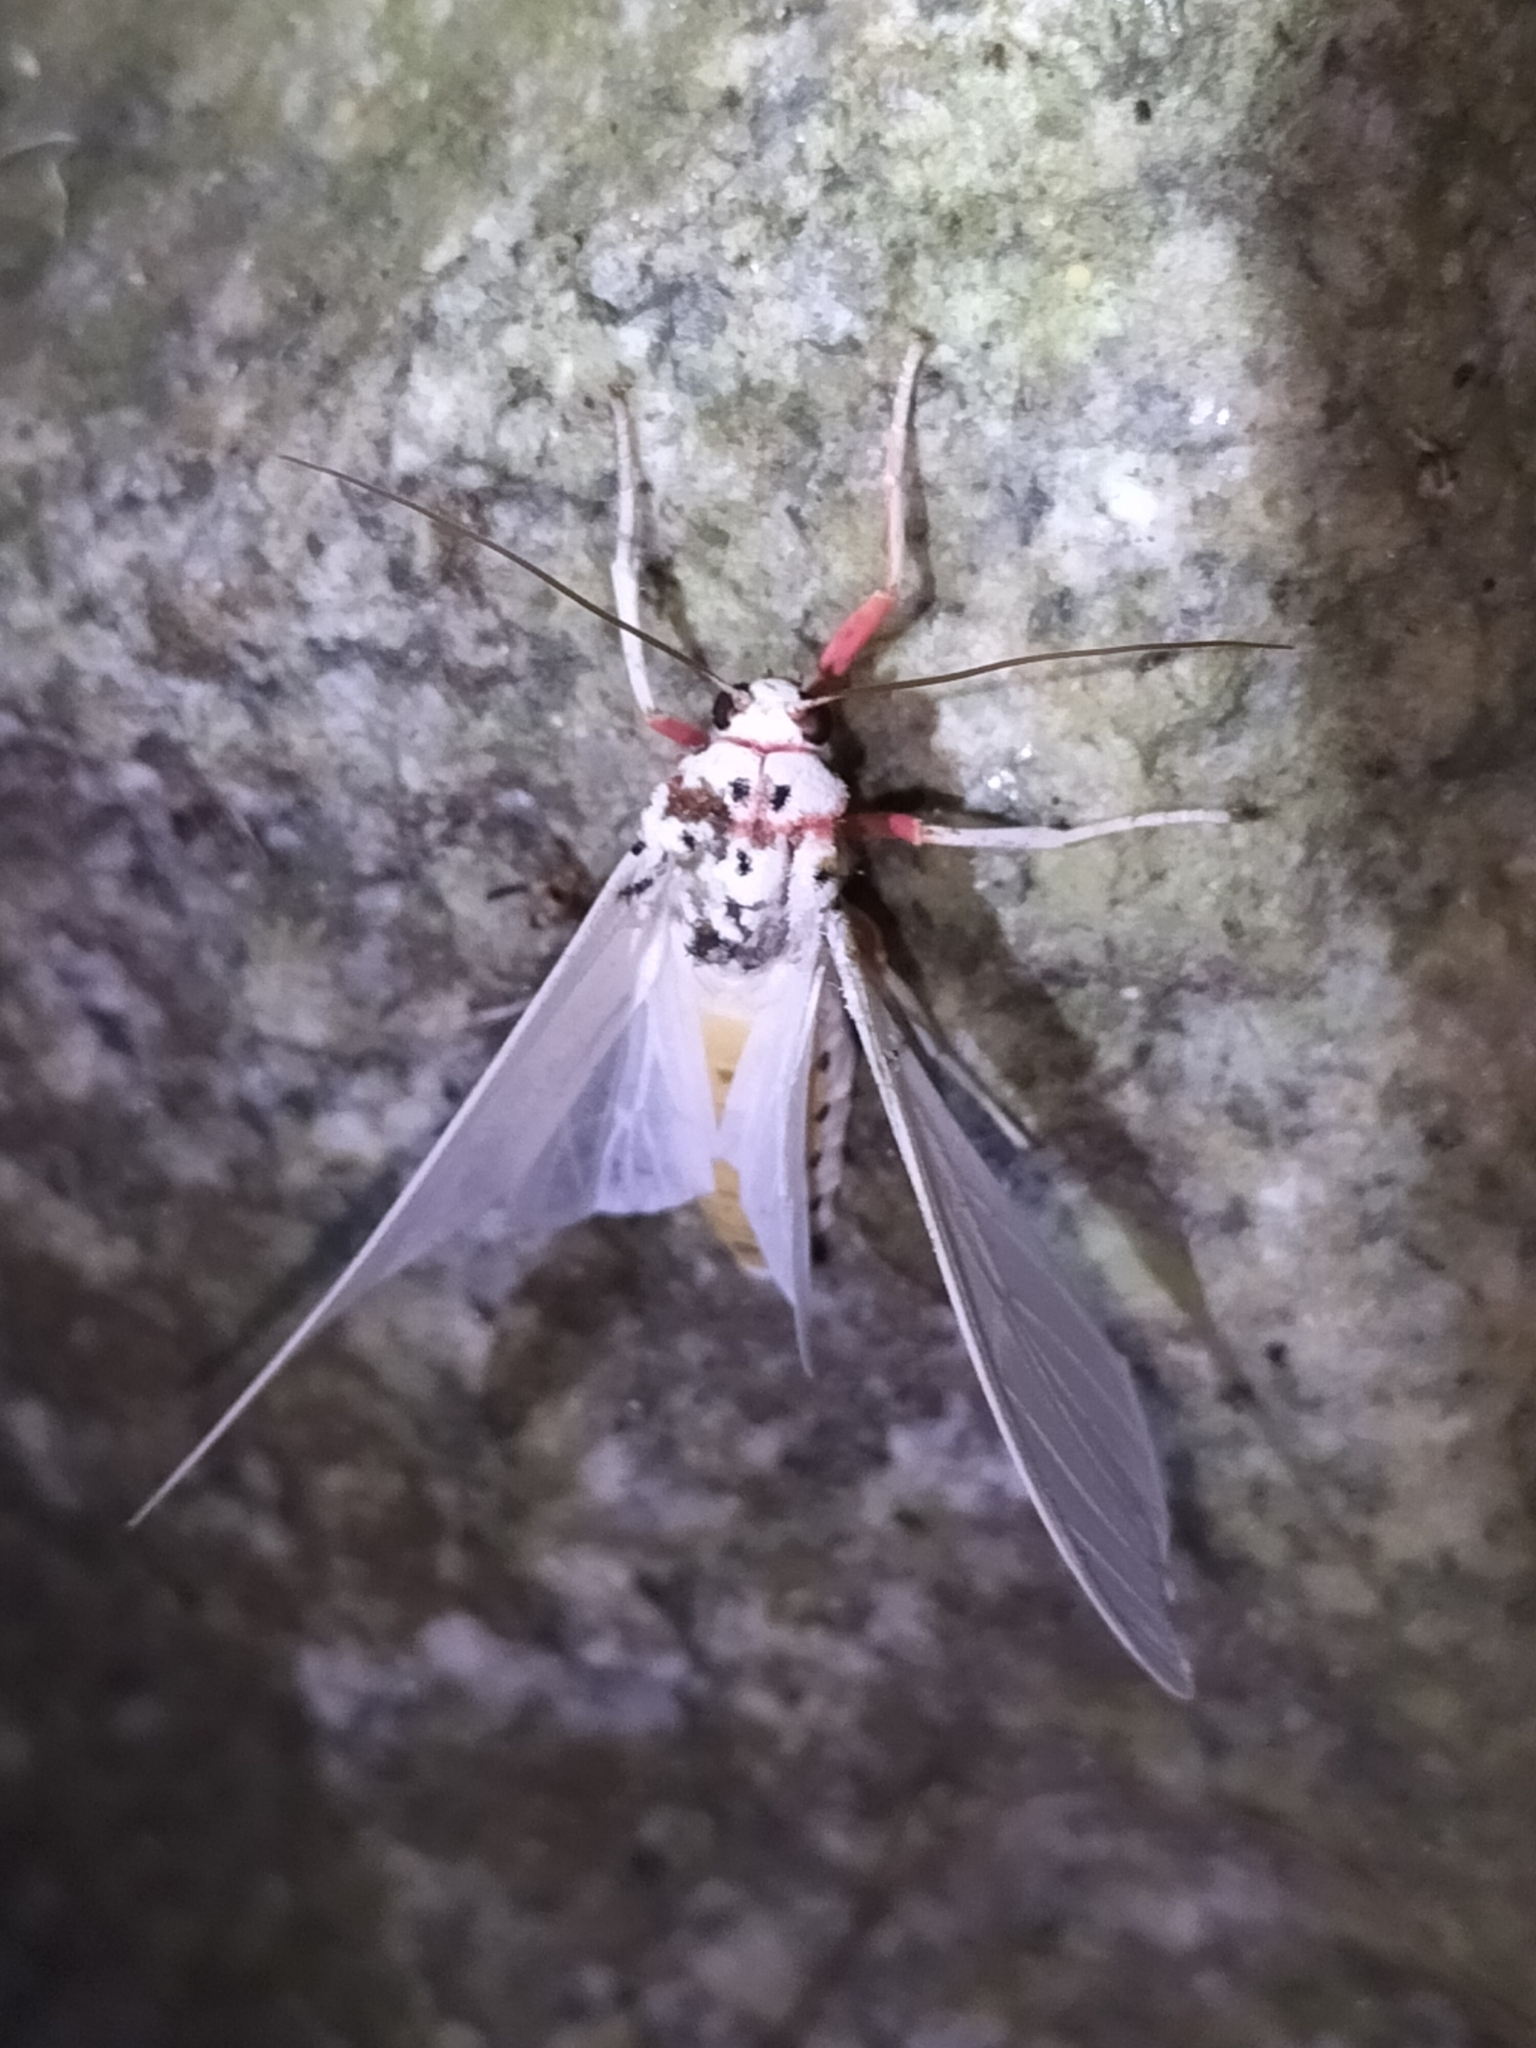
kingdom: Animalia
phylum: Arthropoda
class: Insecta
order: Lepidoptera
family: Erebidae
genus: Amerila
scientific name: Amerila rubripes
